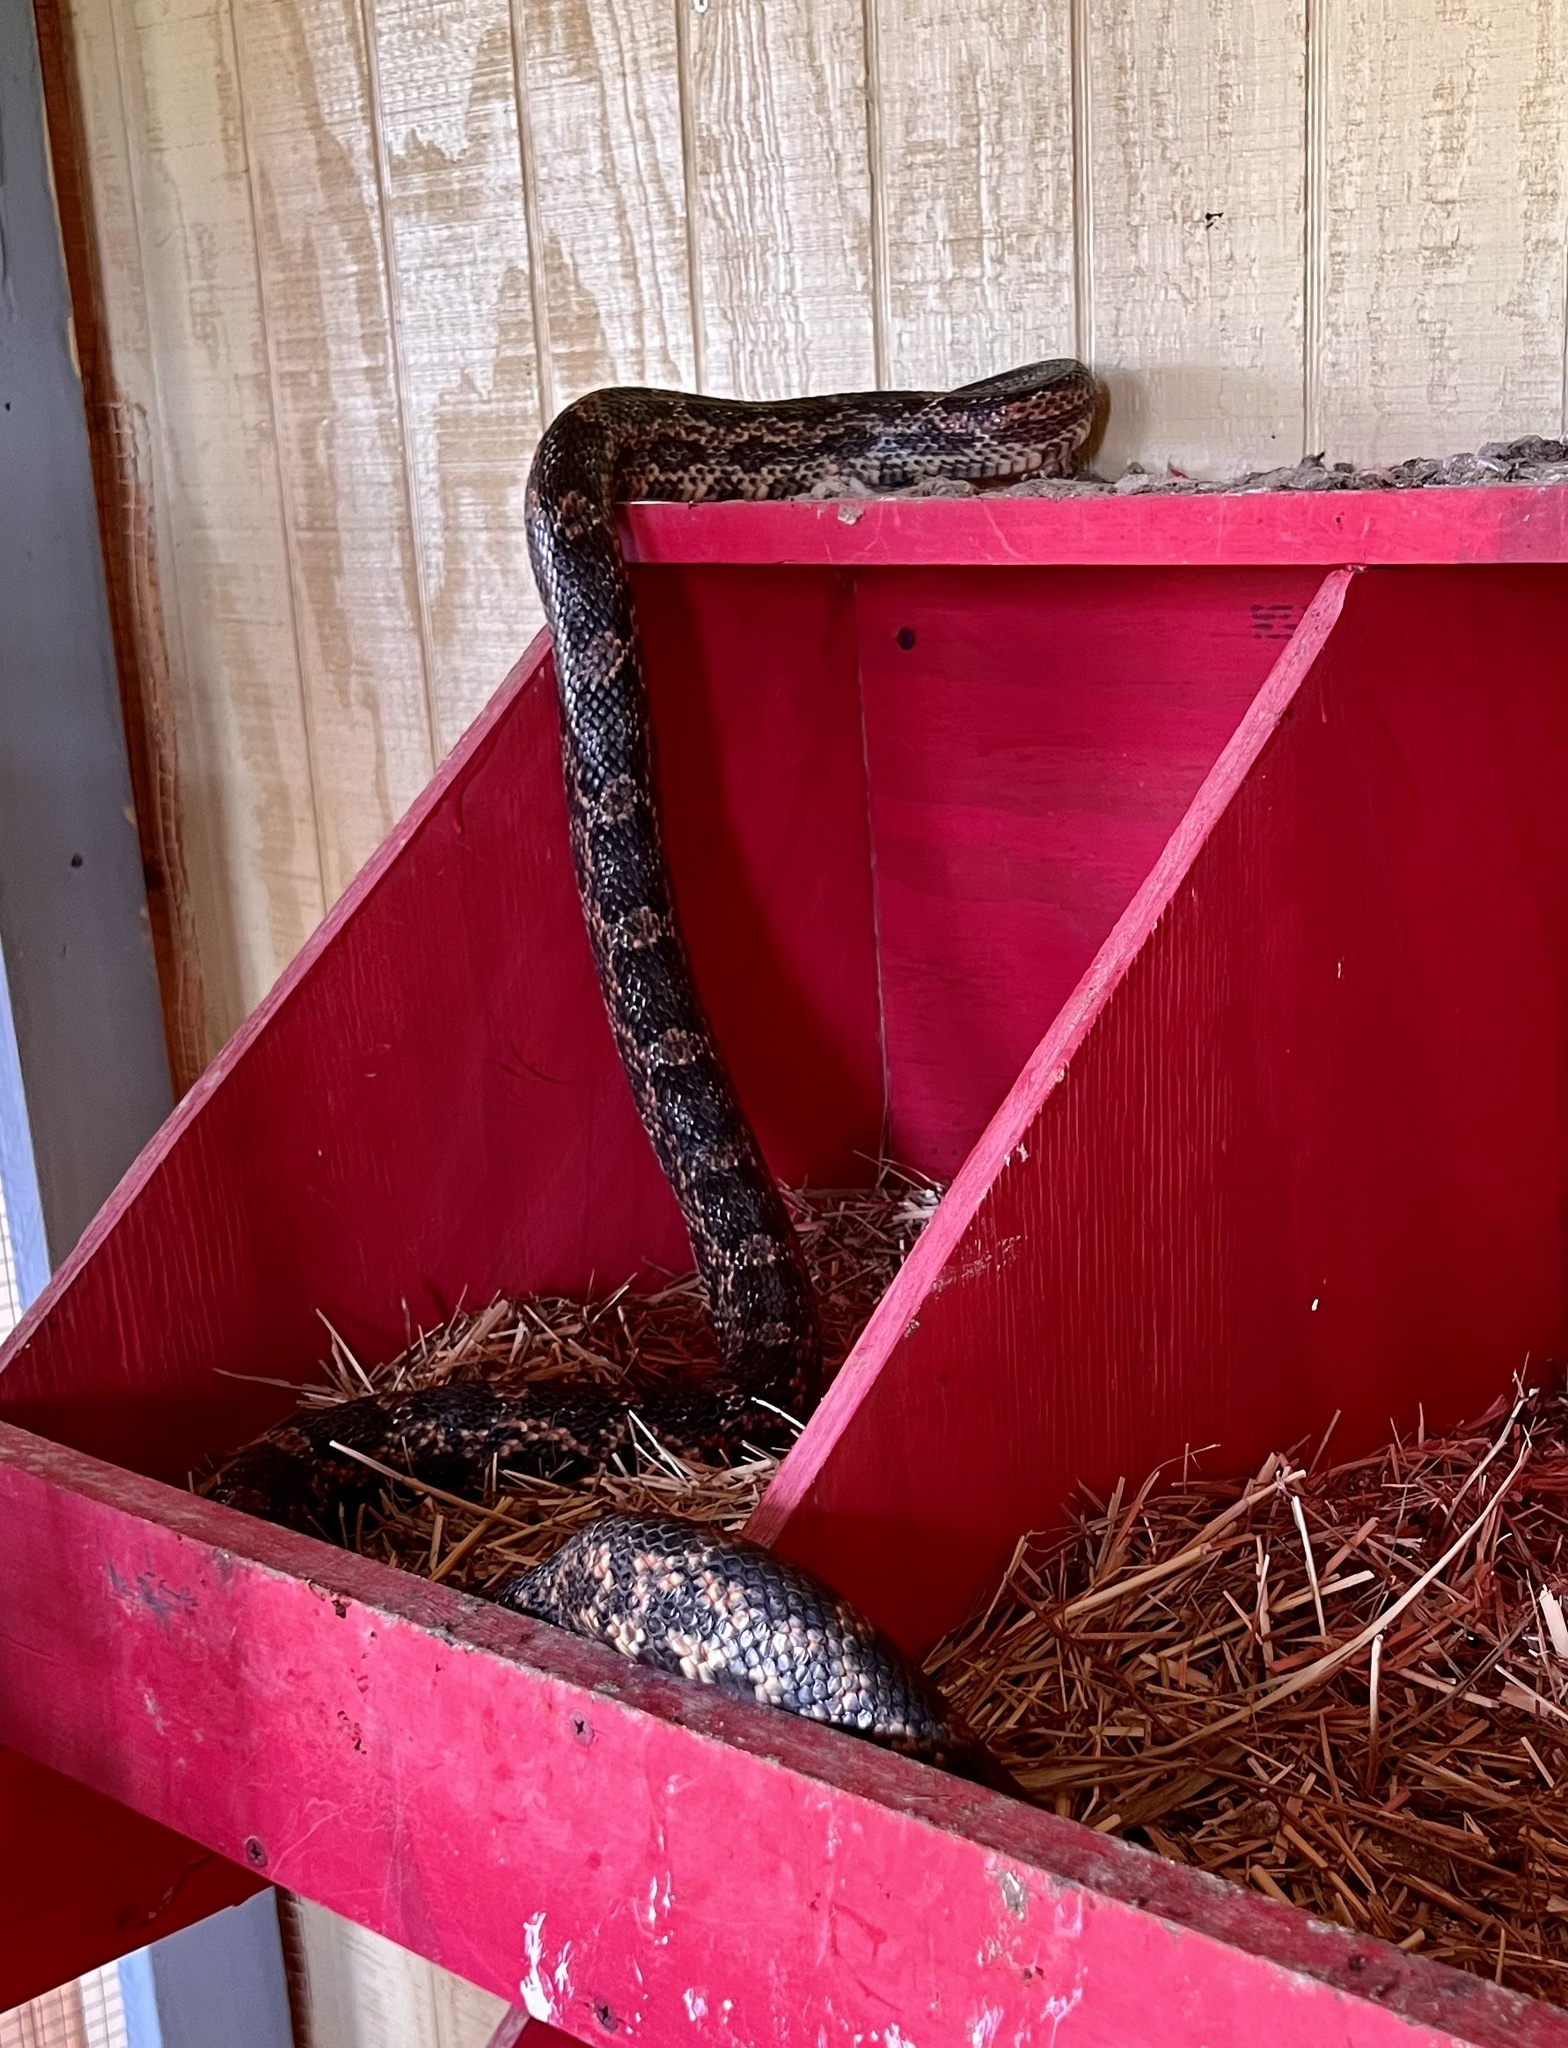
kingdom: Animalia
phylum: Chordata
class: Squamata
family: Colubridae
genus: Pantherophis
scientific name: Pantherophis obsoletus
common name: Black rat snake
